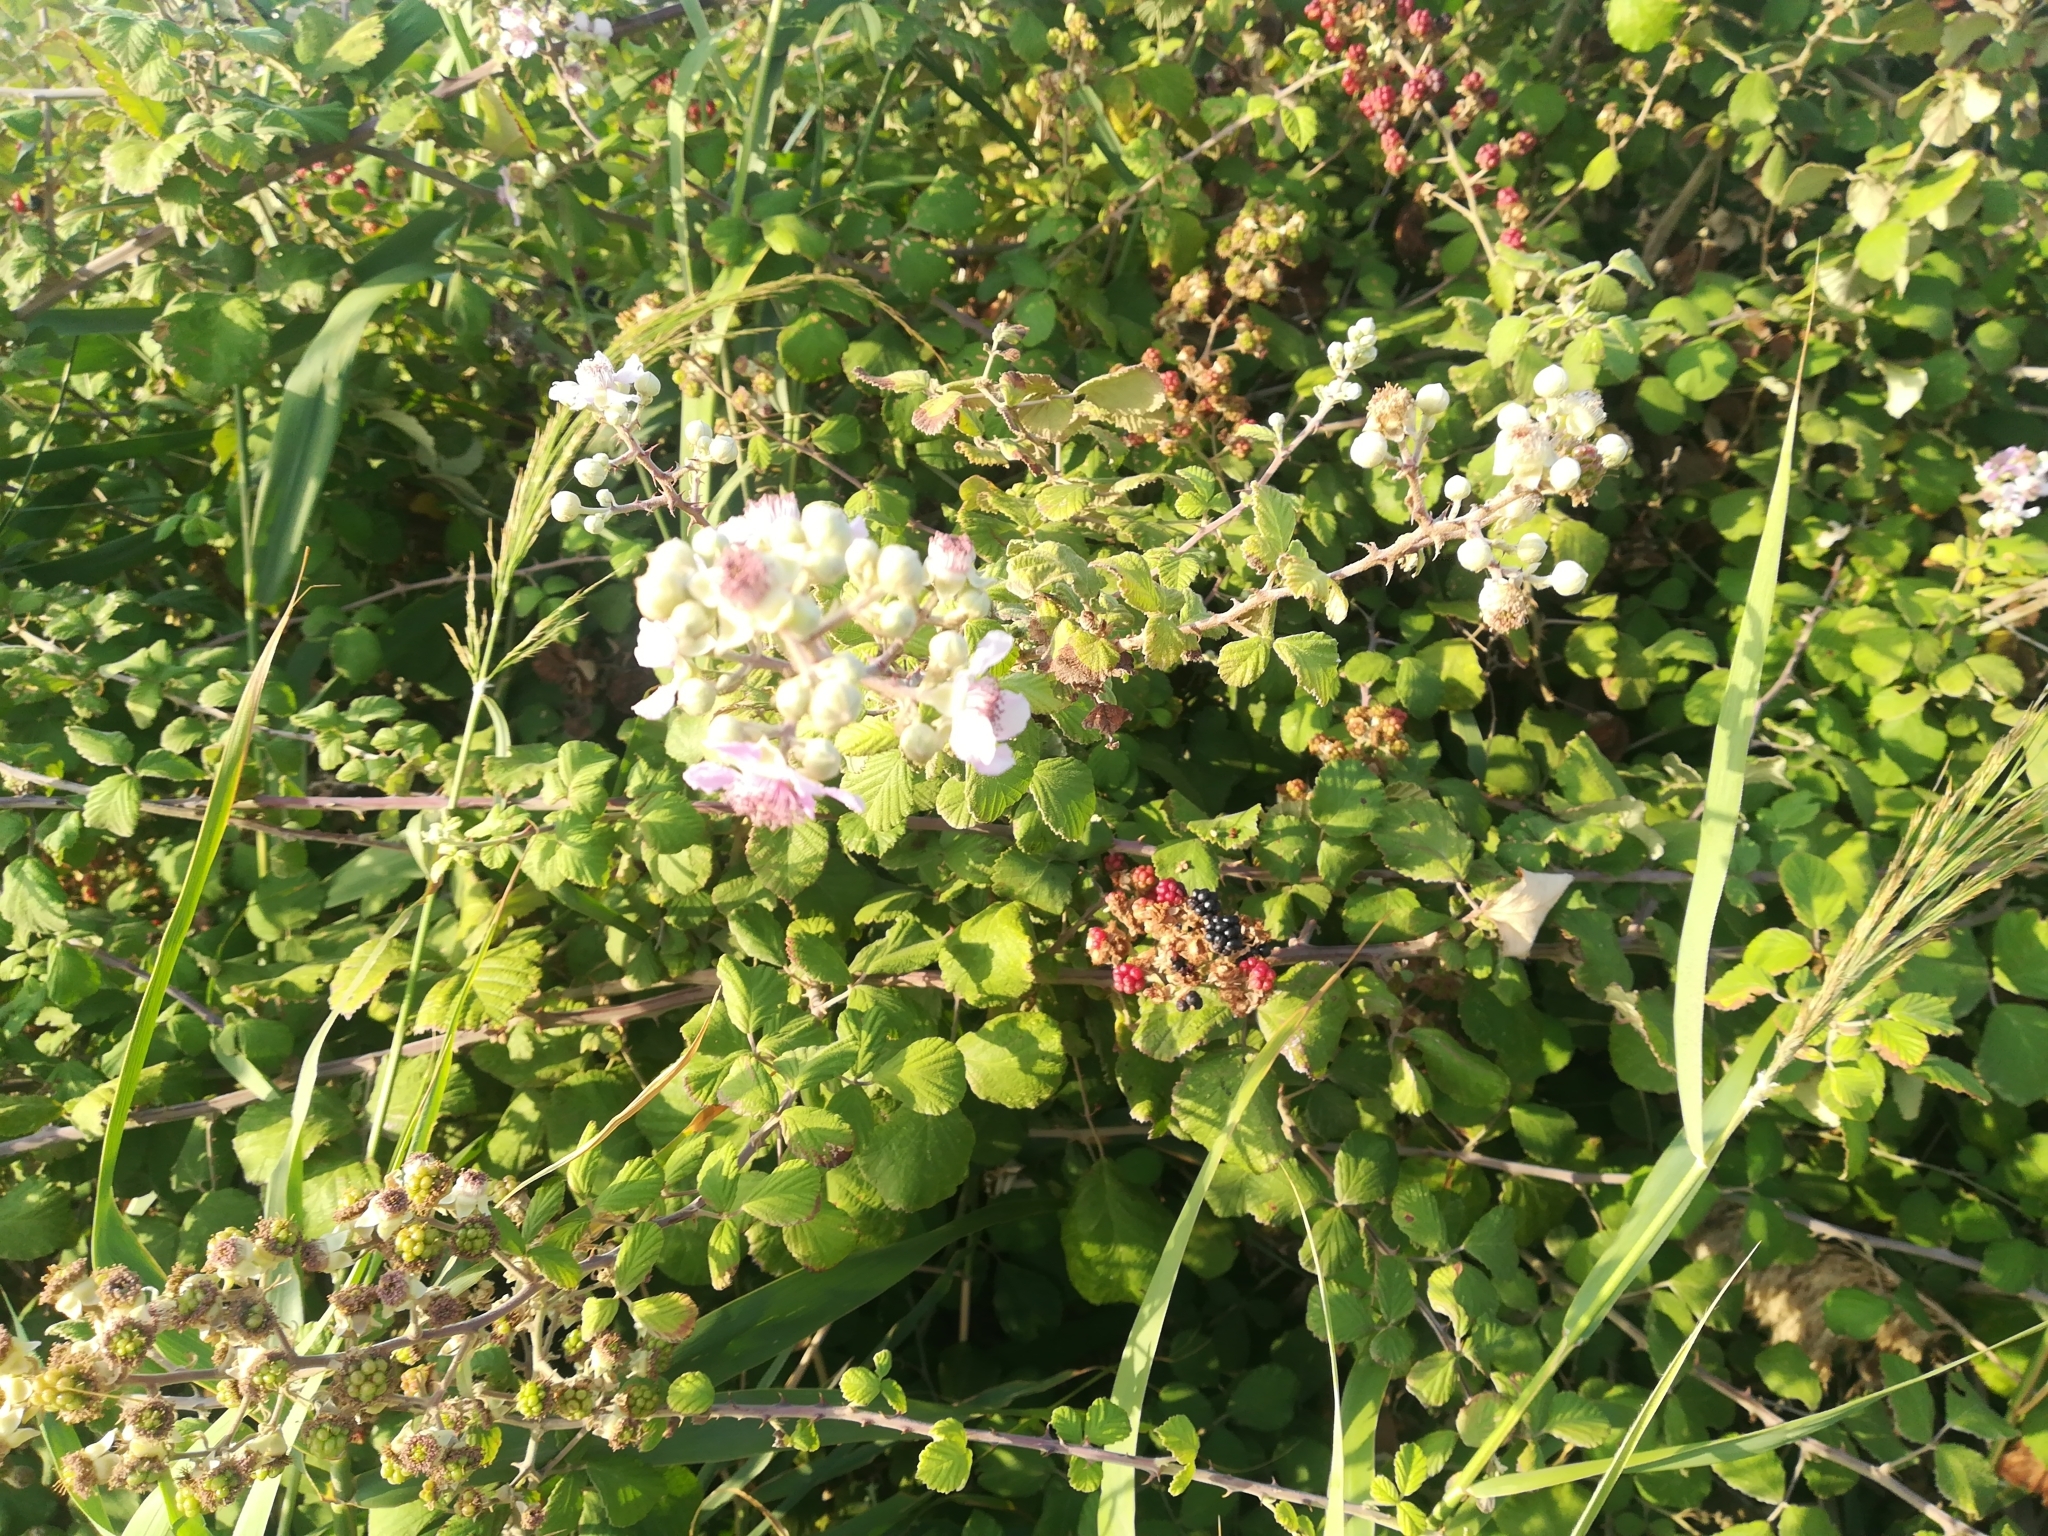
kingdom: Plantae
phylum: Tracheophyta
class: Magnoliopsida
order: Rosales
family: Rosaceae
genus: Rubus
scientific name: Rubus sanctus
